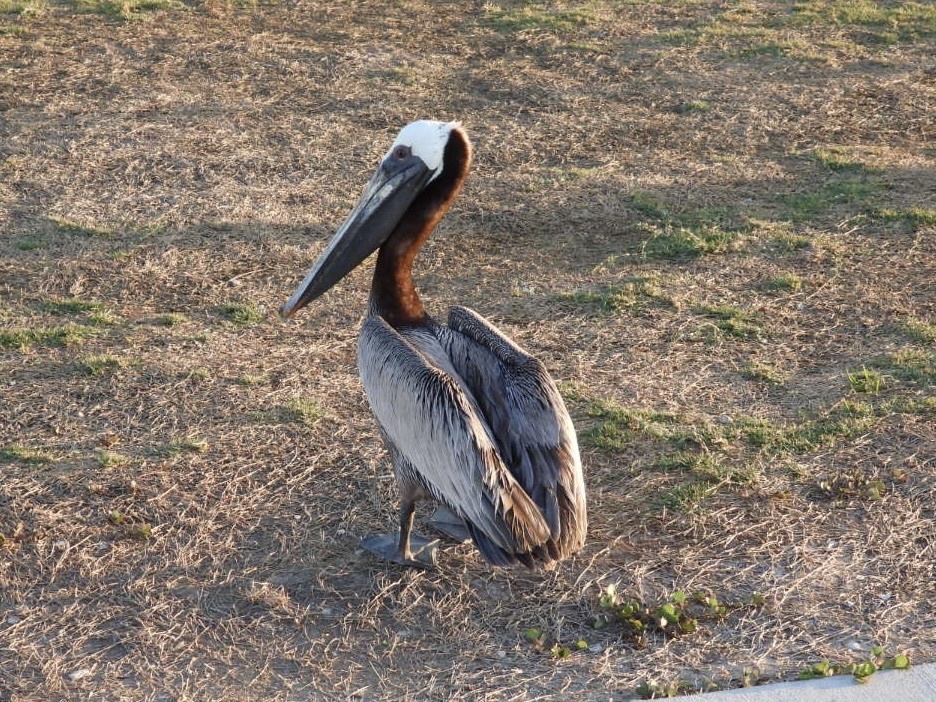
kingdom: Animalia
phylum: Chordata
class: Aves
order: Pelecaniformes
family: Pelecanidae
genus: Pelecanus
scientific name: Pelecanus occidentalis
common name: Brown pelican
